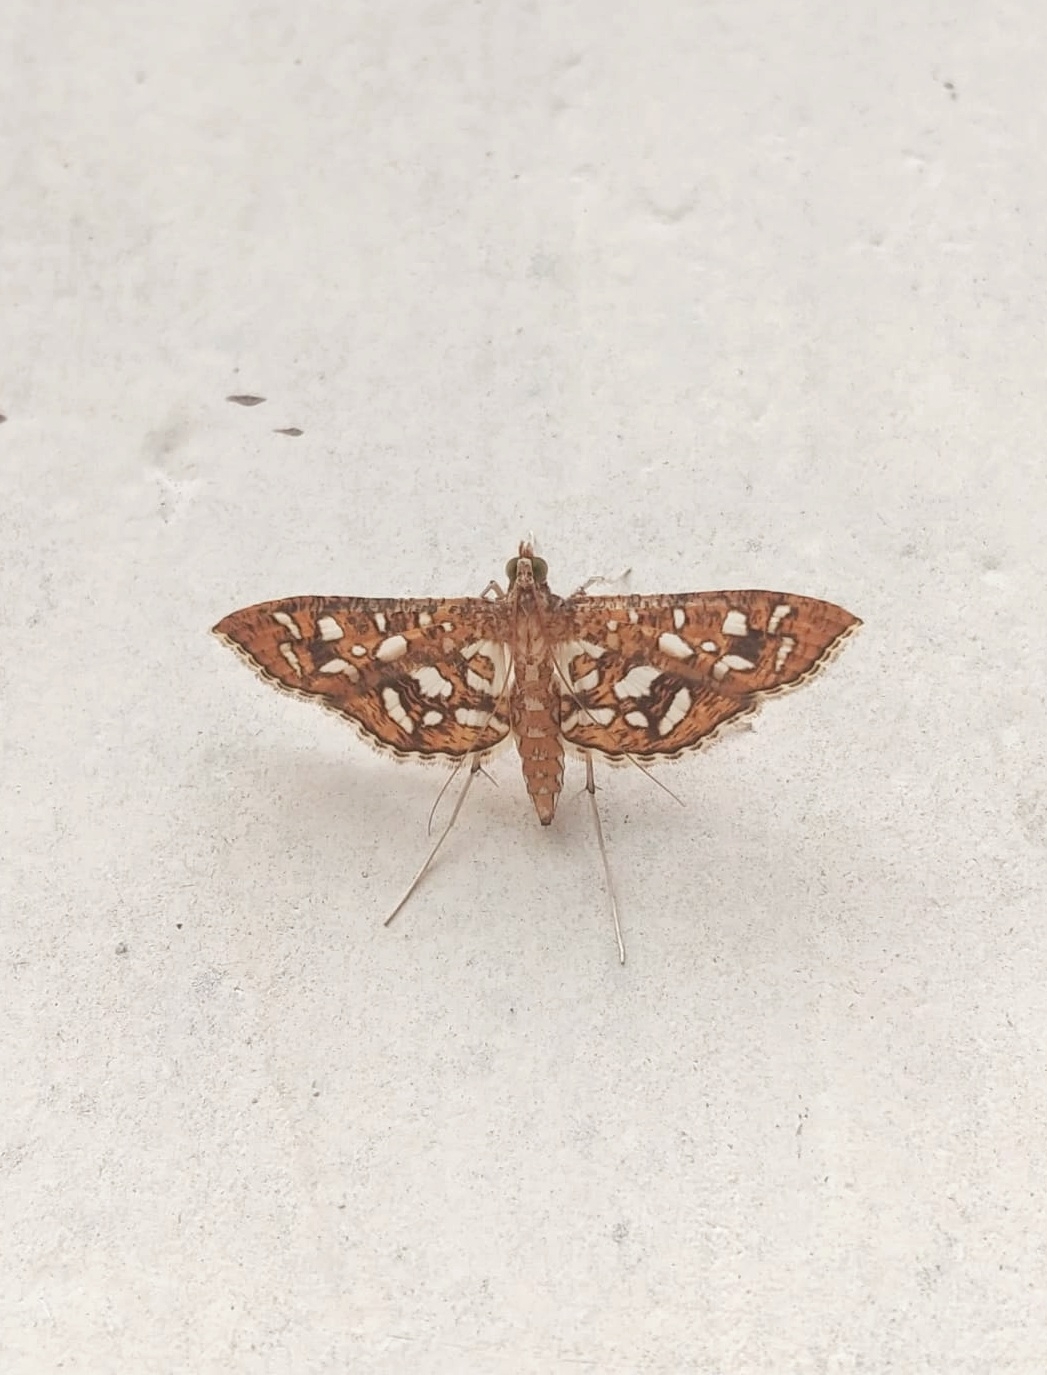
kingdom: Animalia
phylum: Arthropoda
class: Insecta
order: Lepidoptera
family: Crambidae
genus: Nausinoe
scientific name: Nausinoe geometralis
